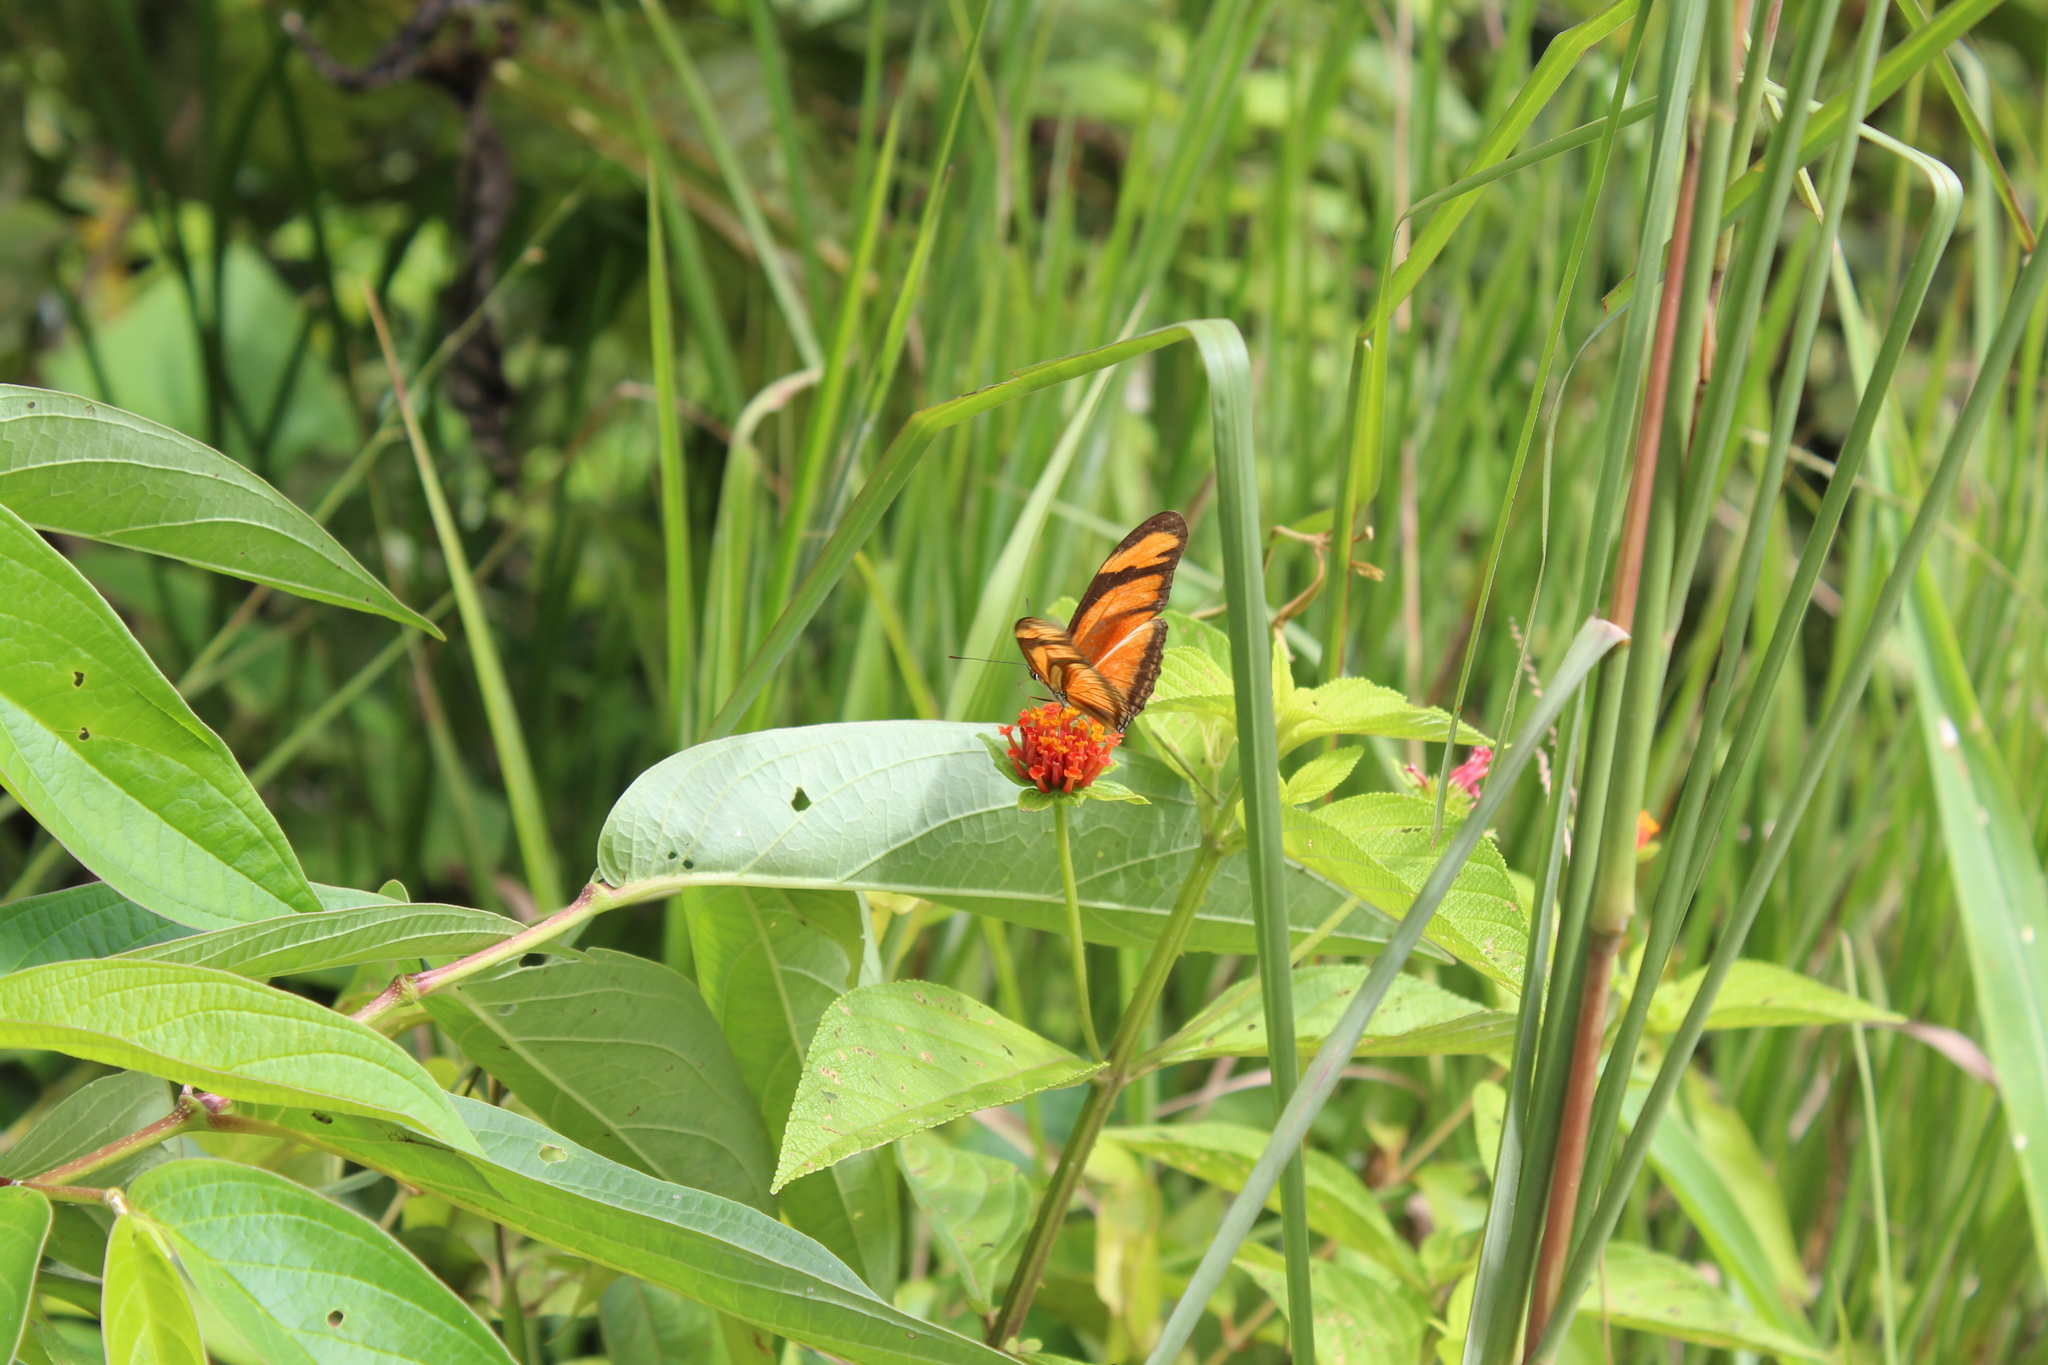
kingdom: Animalia
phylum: Arthropoda
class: Insecta
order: Lepidoptera
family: Nymphalidae
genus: Dryas
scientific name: Dryas iulia
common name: Flambeau
